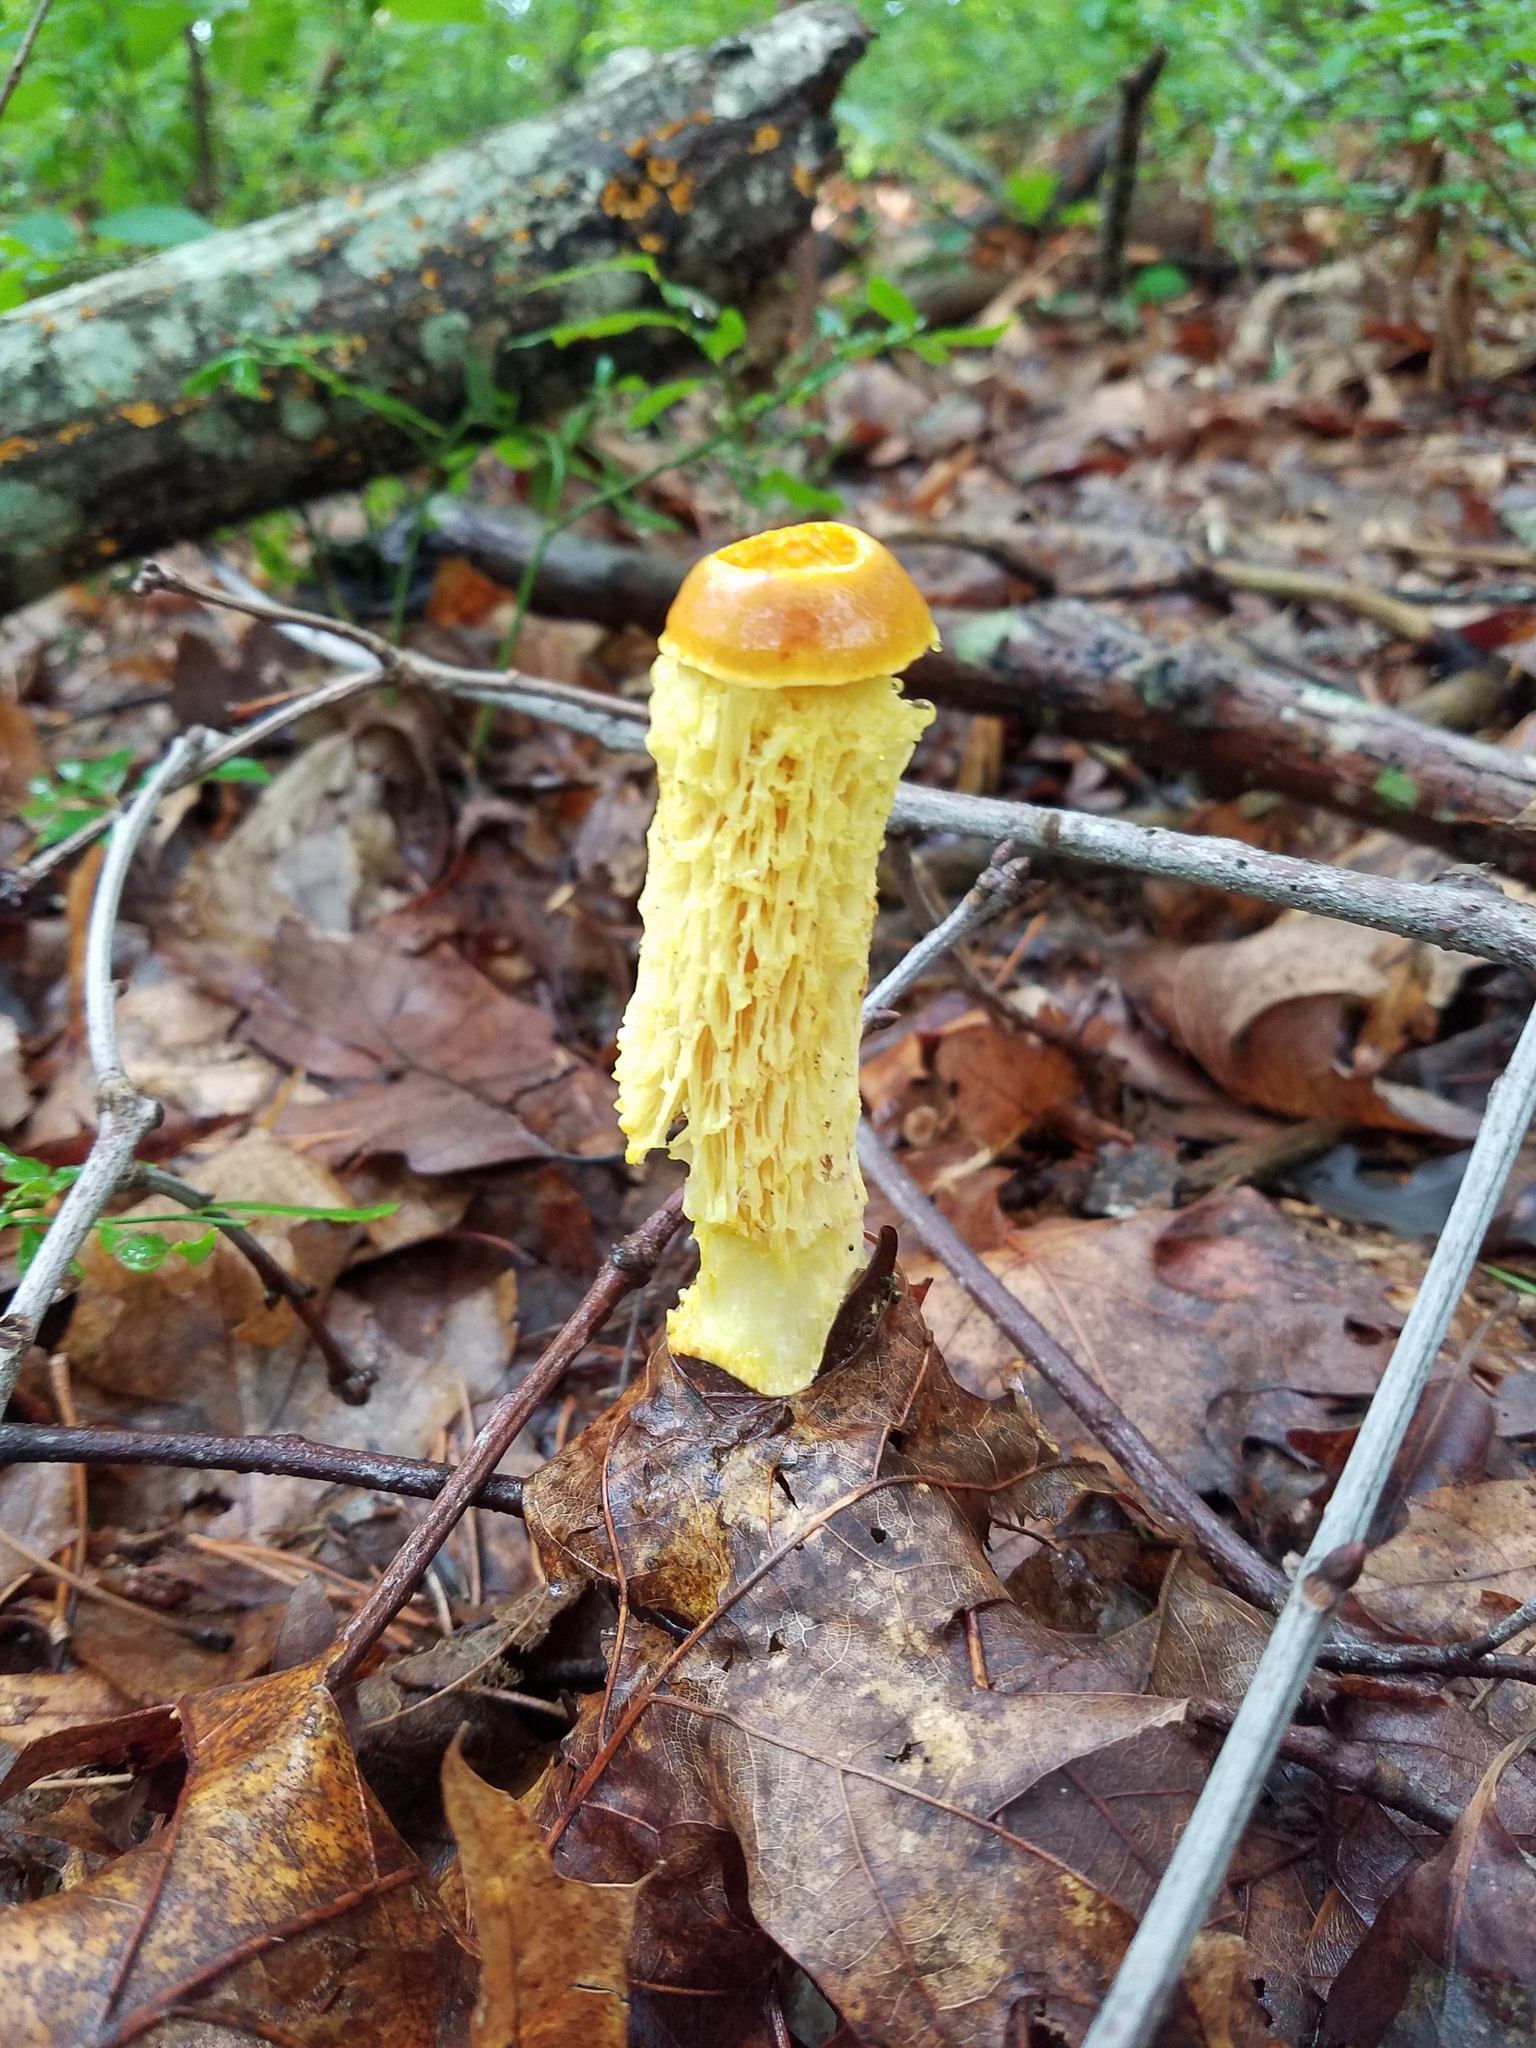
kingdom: Fungi
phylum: Basidiomycota
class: Agaricomycetes
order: Boletales
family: Boletaceae
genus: Aureoboletus
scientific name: Aureoboletus betula
